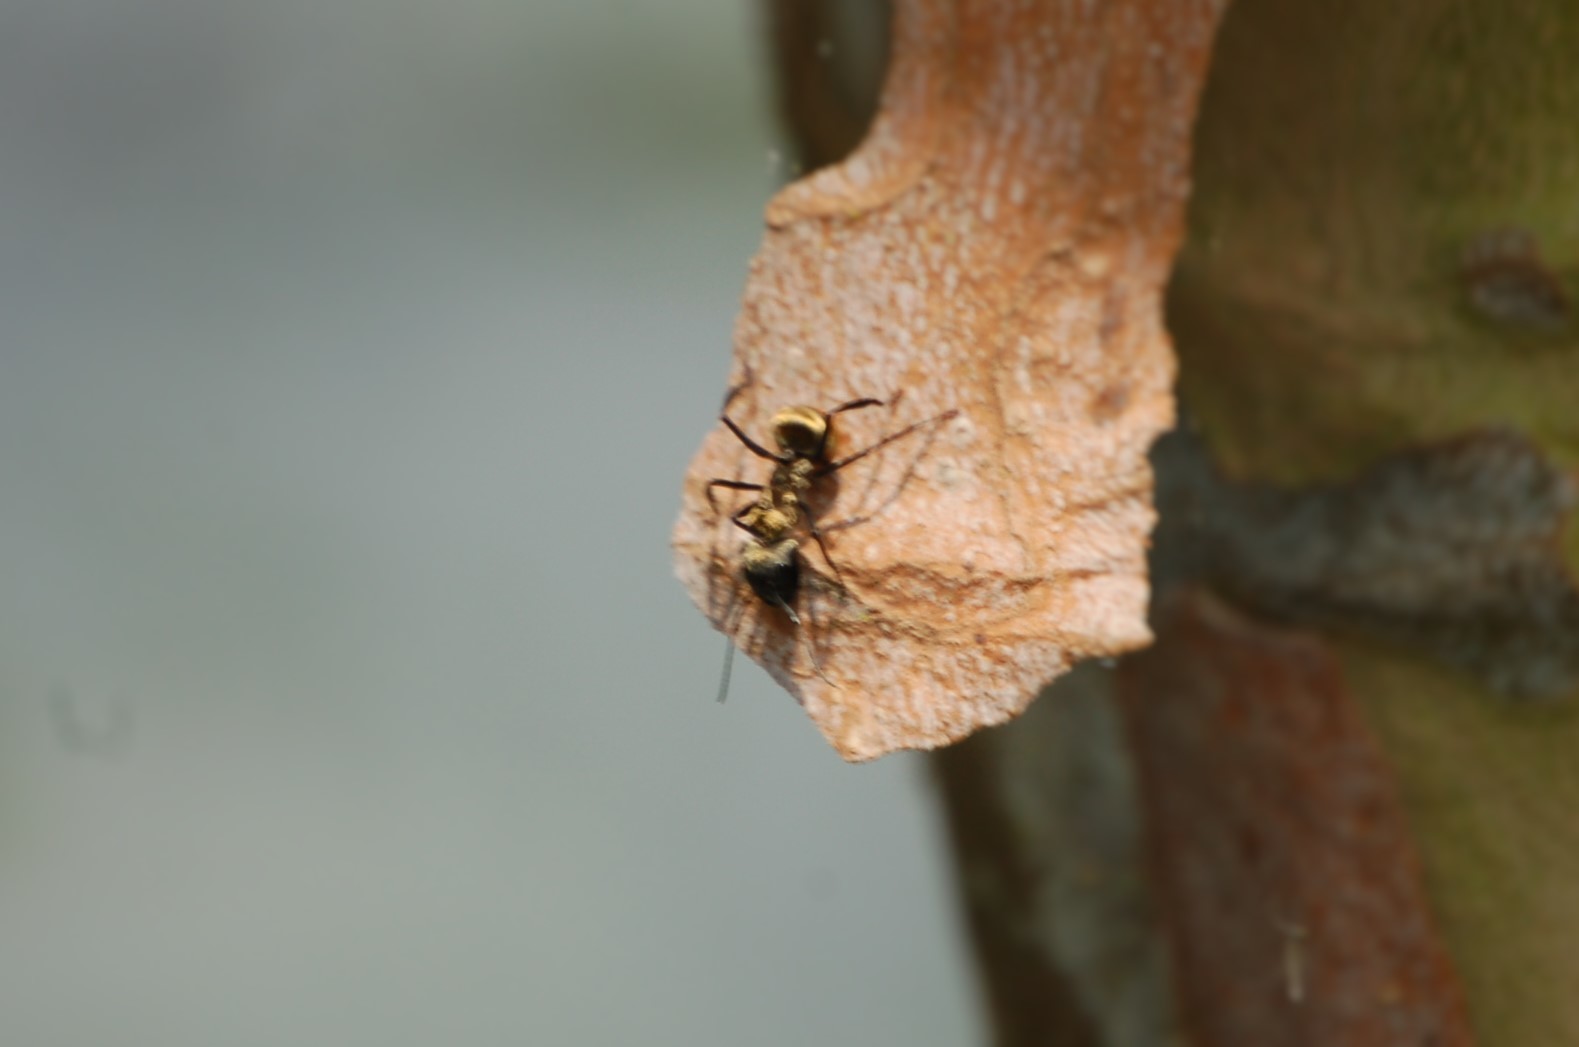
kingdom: Animalia
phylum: Arthropoda
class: Insecta
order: Hymenoptera
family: Formicidae
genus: Camponotus
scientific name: Camponotus sericeiventris
